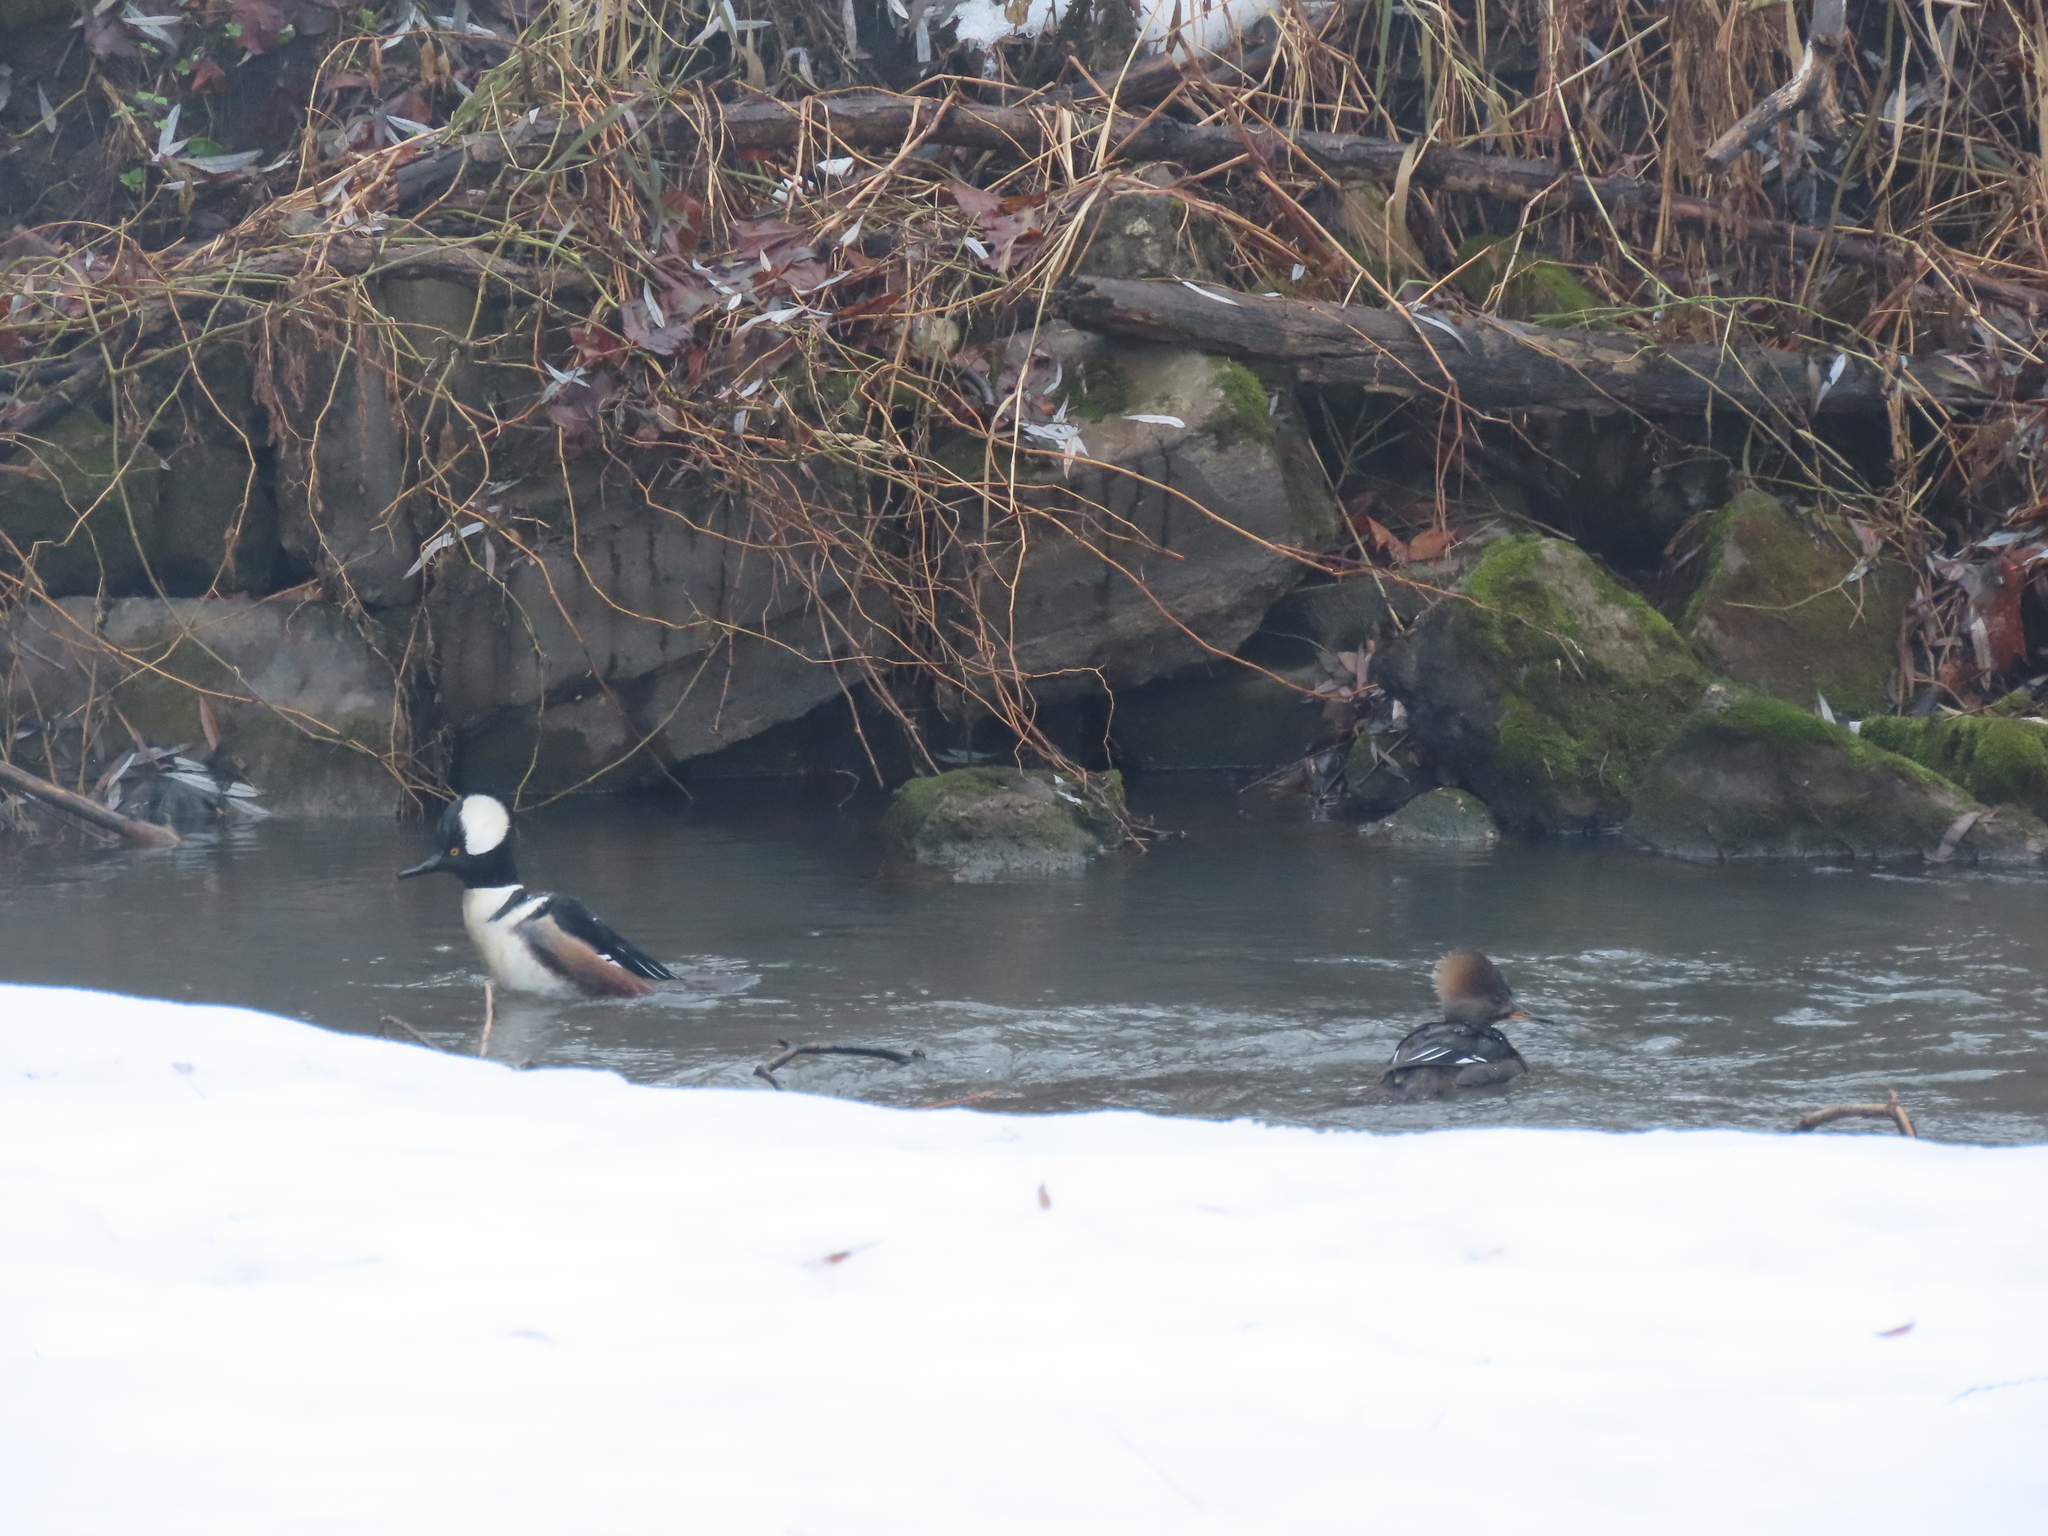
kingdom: Animalia
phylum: Chordata
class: Aves
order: Anseriformes
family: Anatidae
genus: Lophodytes
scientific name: Lophodytes cucullatus
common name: Hooded merganser
